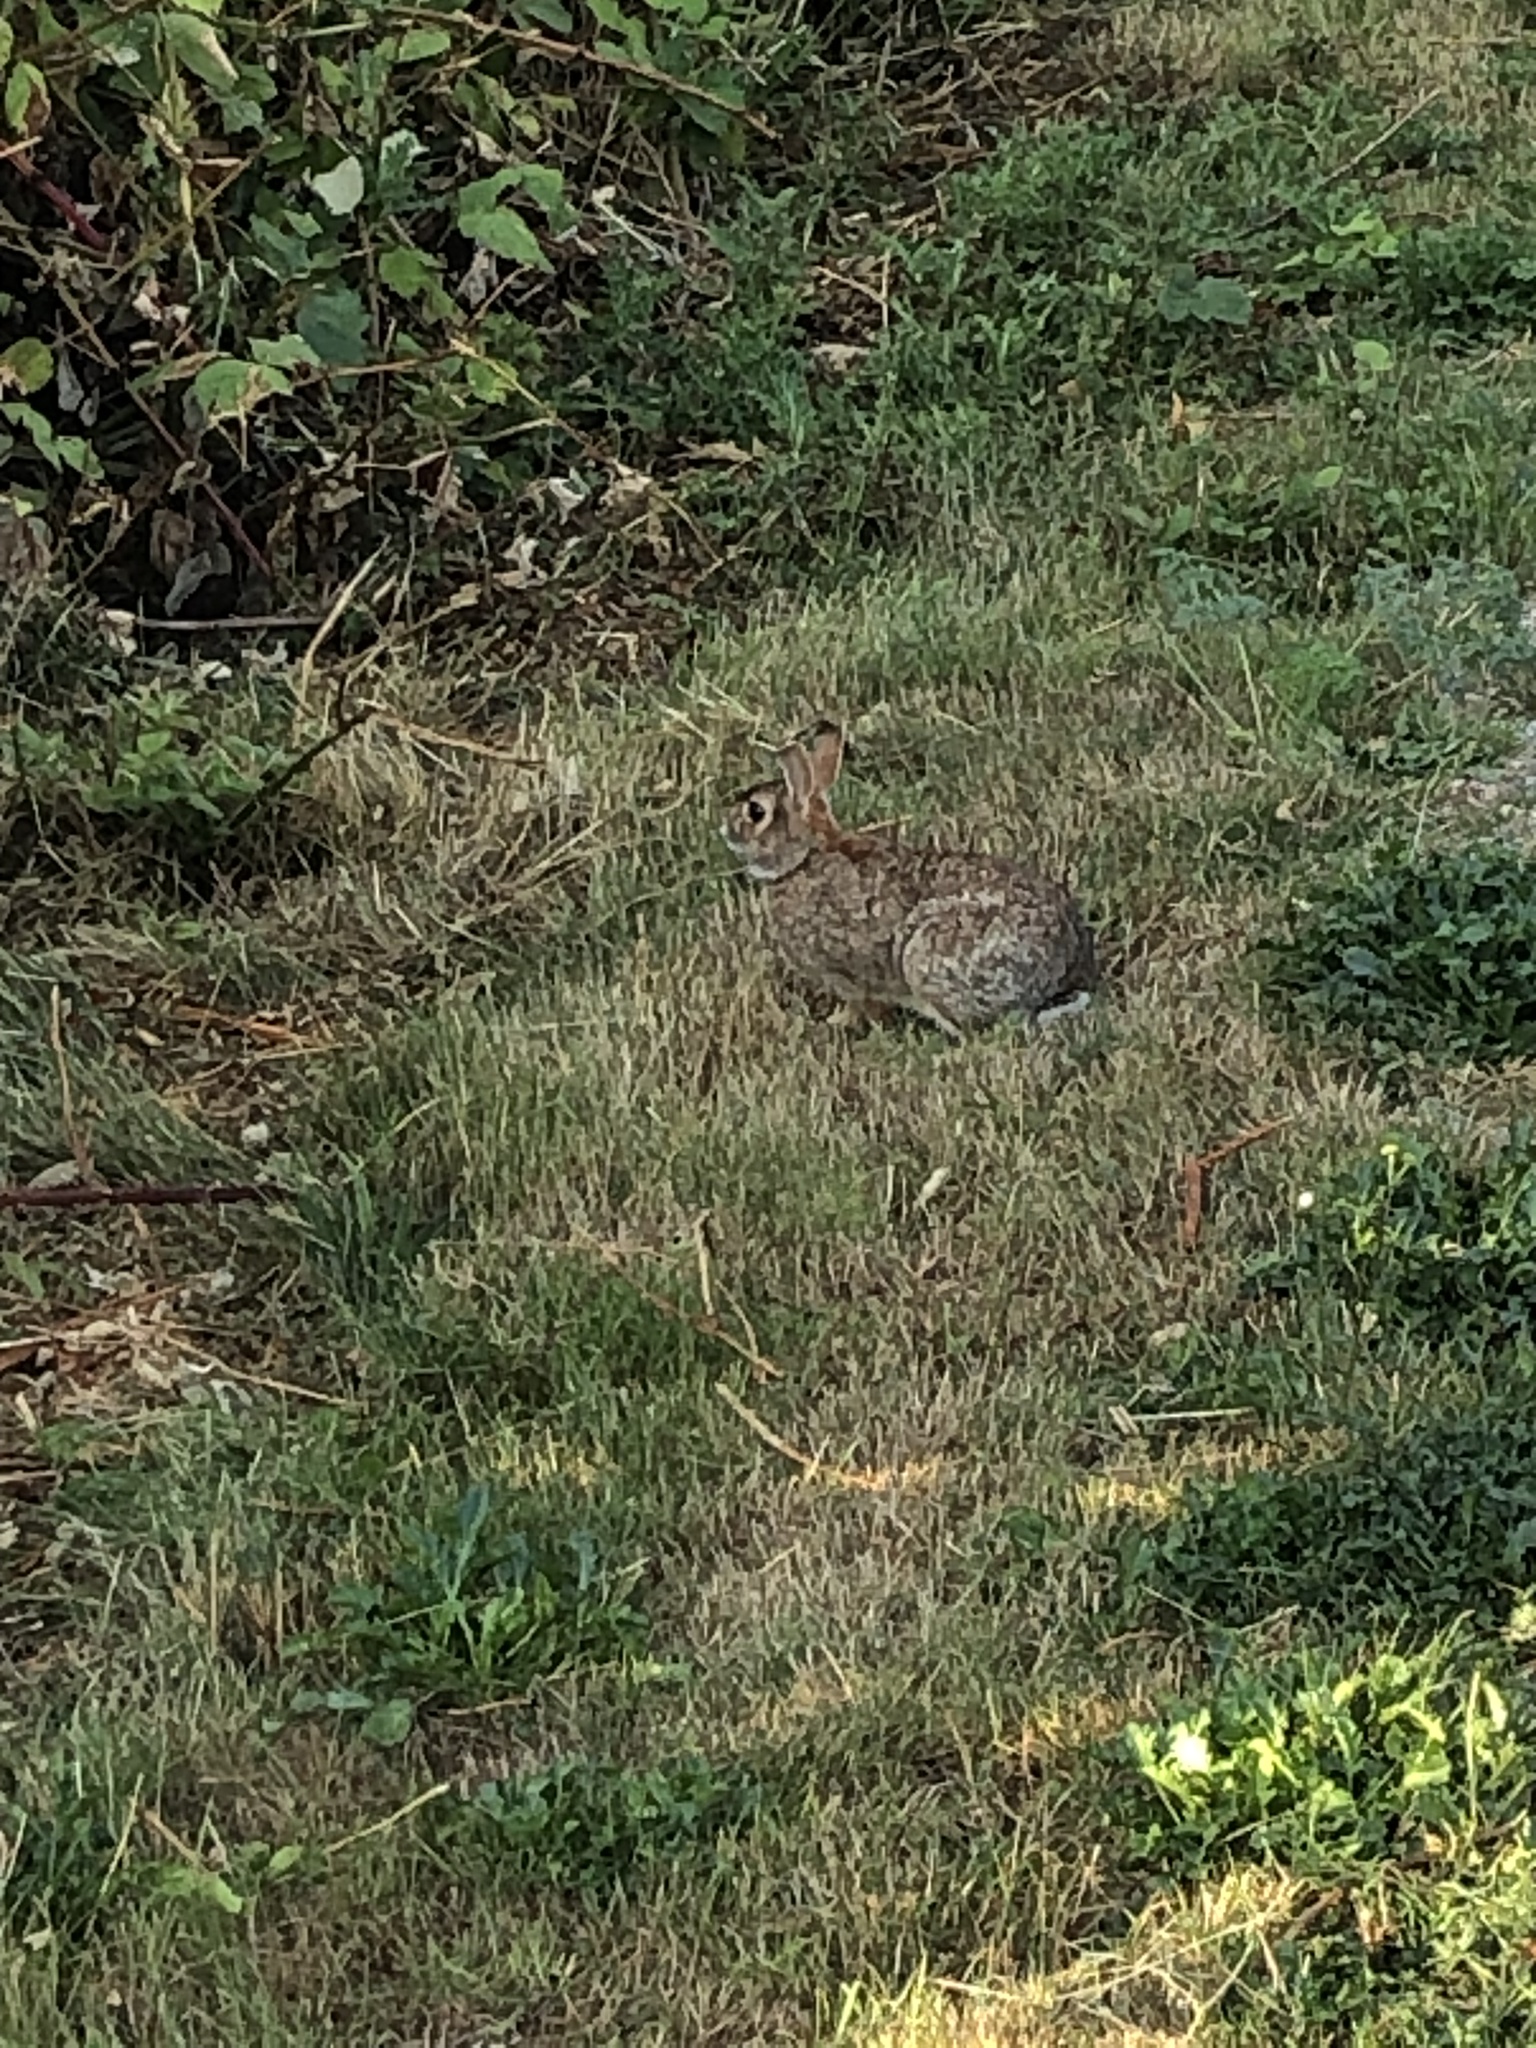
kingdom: Animalia
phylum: Chordata
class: Mammalia
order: Lagomorpha
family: Leporidae
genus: Sylvilagus
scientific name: Sylvilagus floridanus
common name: Eastern cottontail
